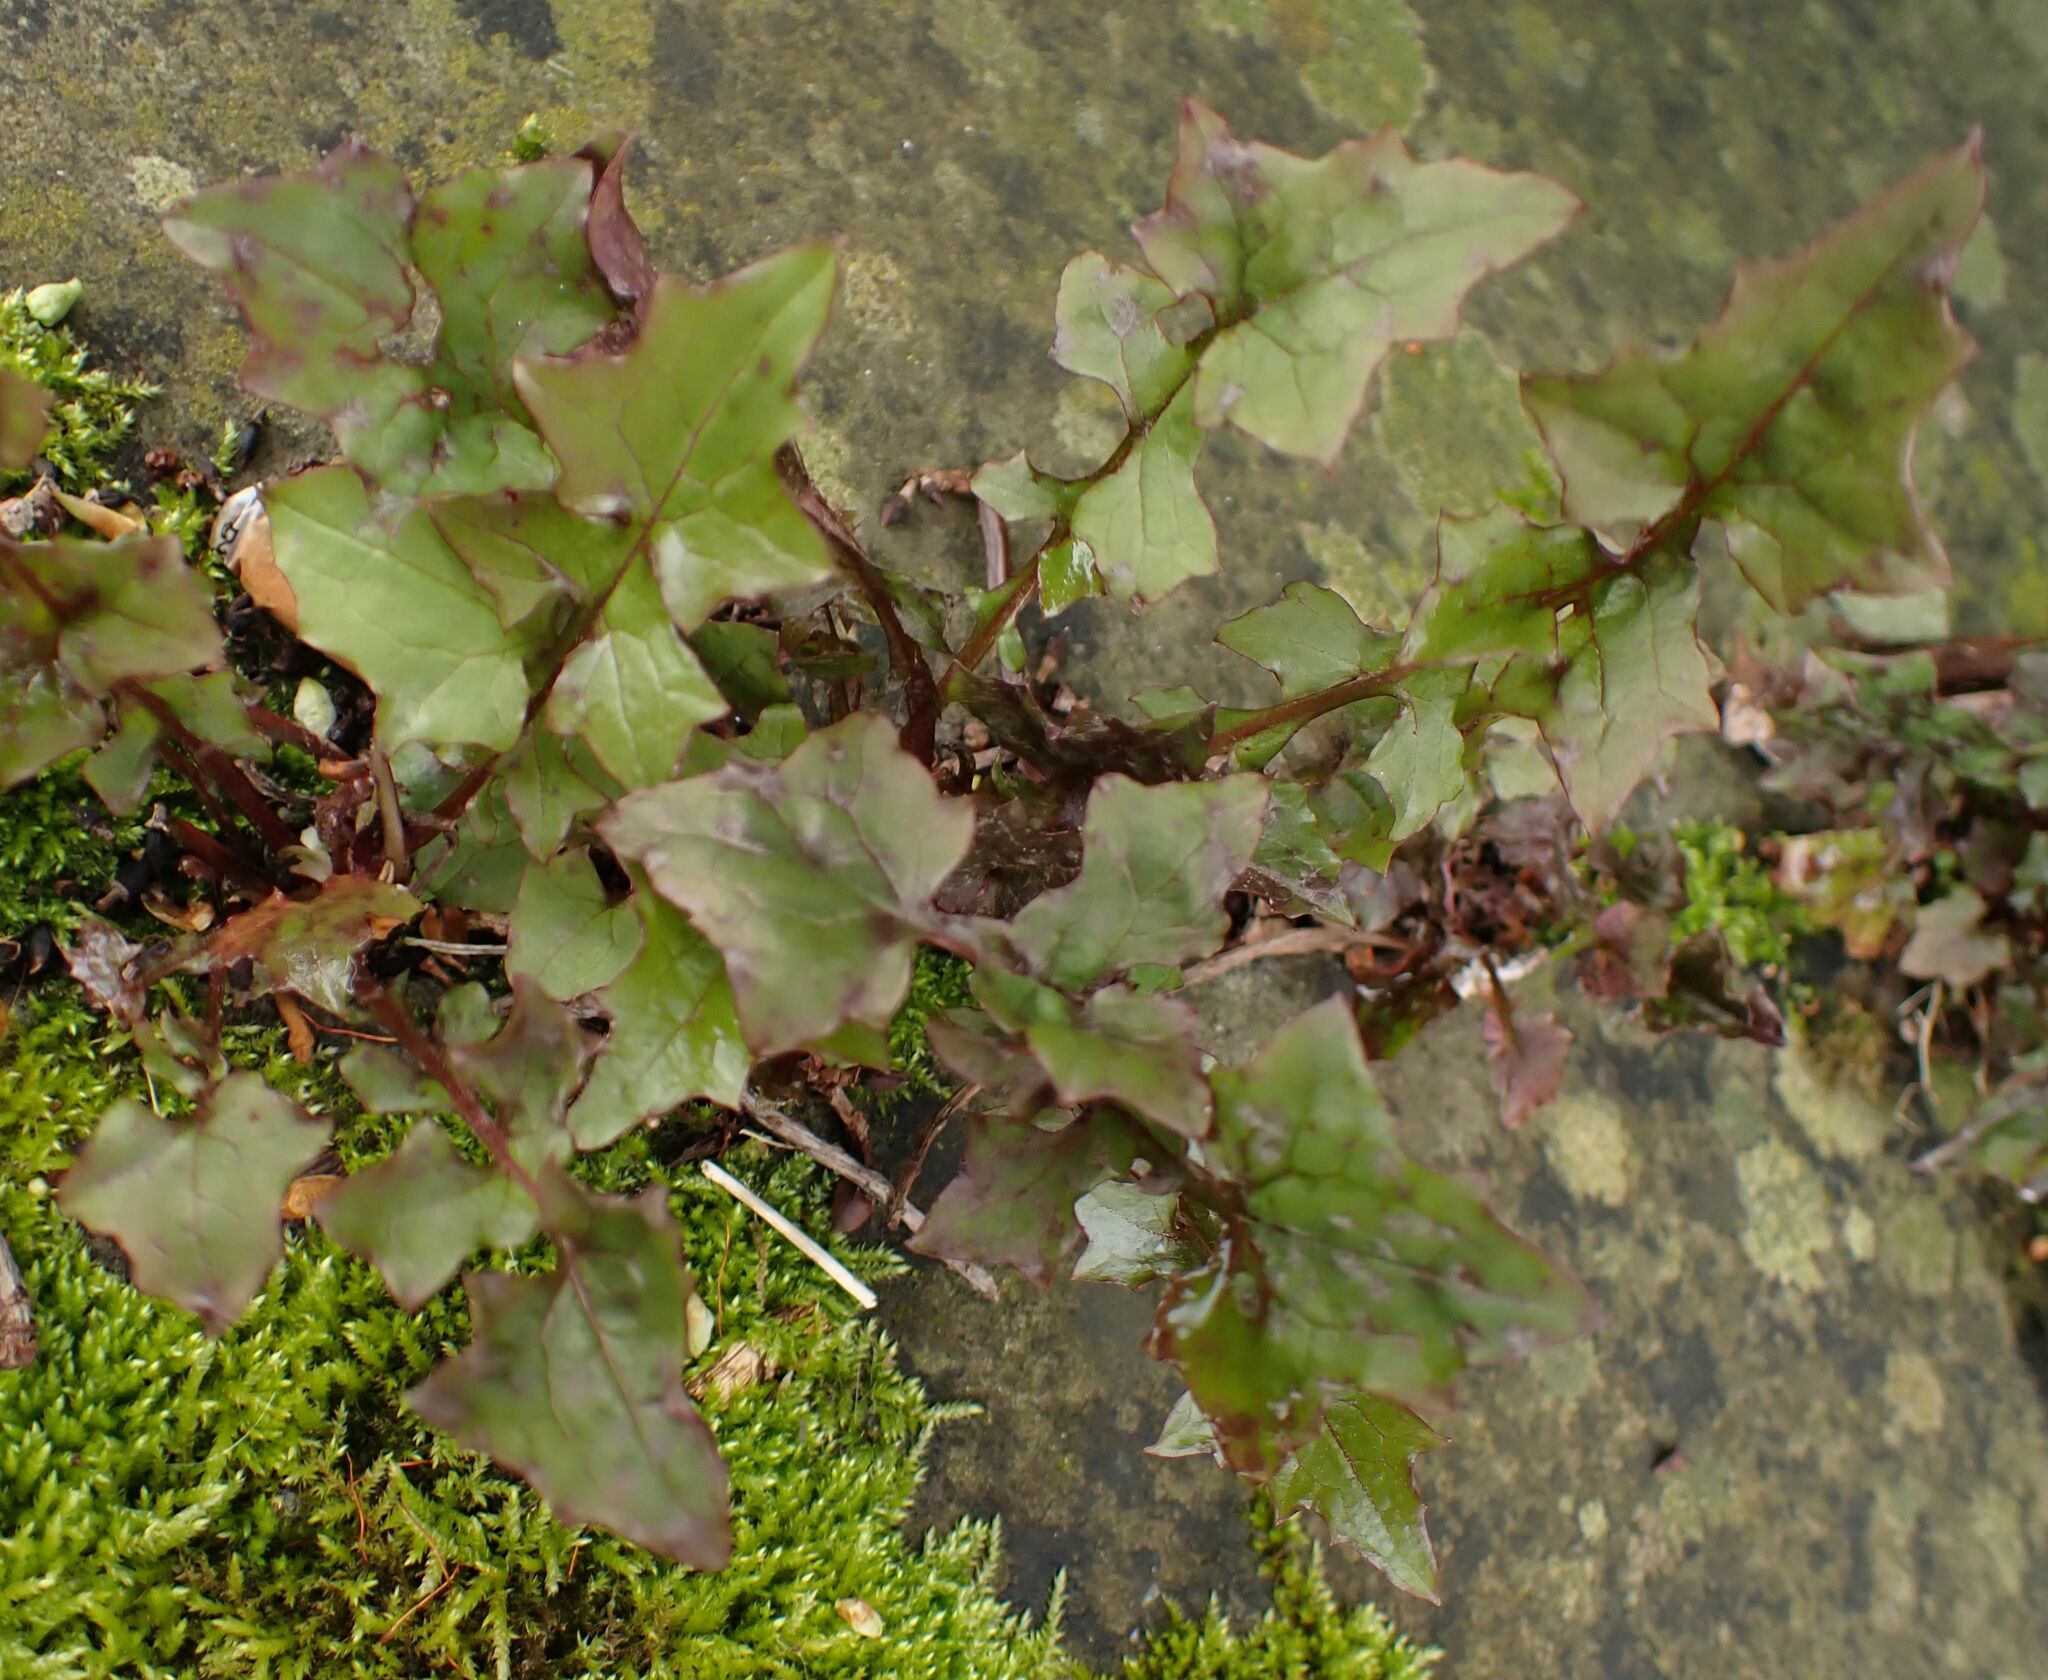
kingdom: Plantae
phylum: Tracheophyta
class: Magnoliopsida
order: Asterales
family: Asteraceae
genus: Mycelis
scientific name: Mycelis muralis
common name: Wall lettuce
